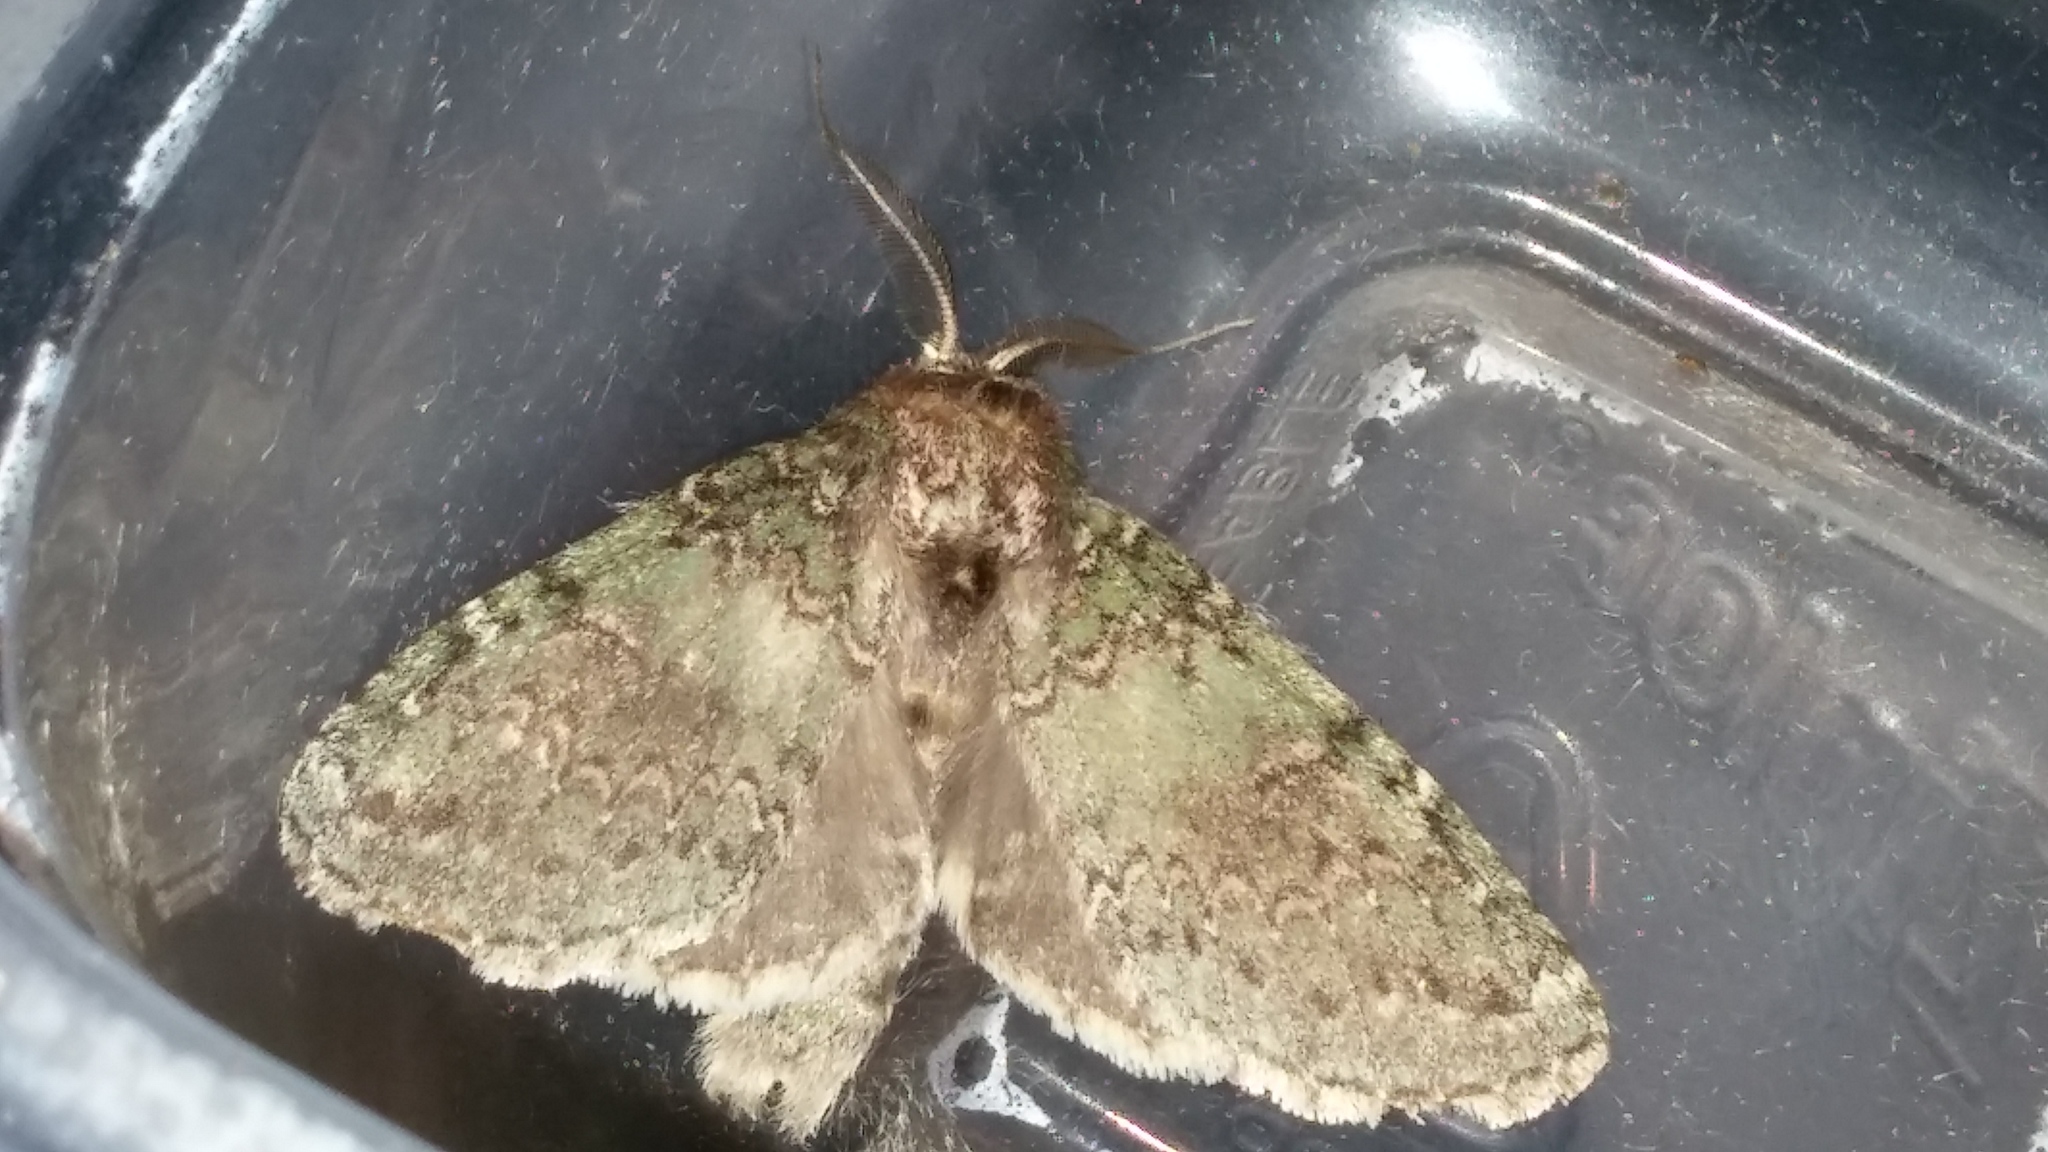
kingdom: Animalia
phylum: Arthropoda
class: Insecta
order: Lepidoptera
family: Notodontidae
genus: Disphragis
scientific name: Disphragis Cecrita biundata
